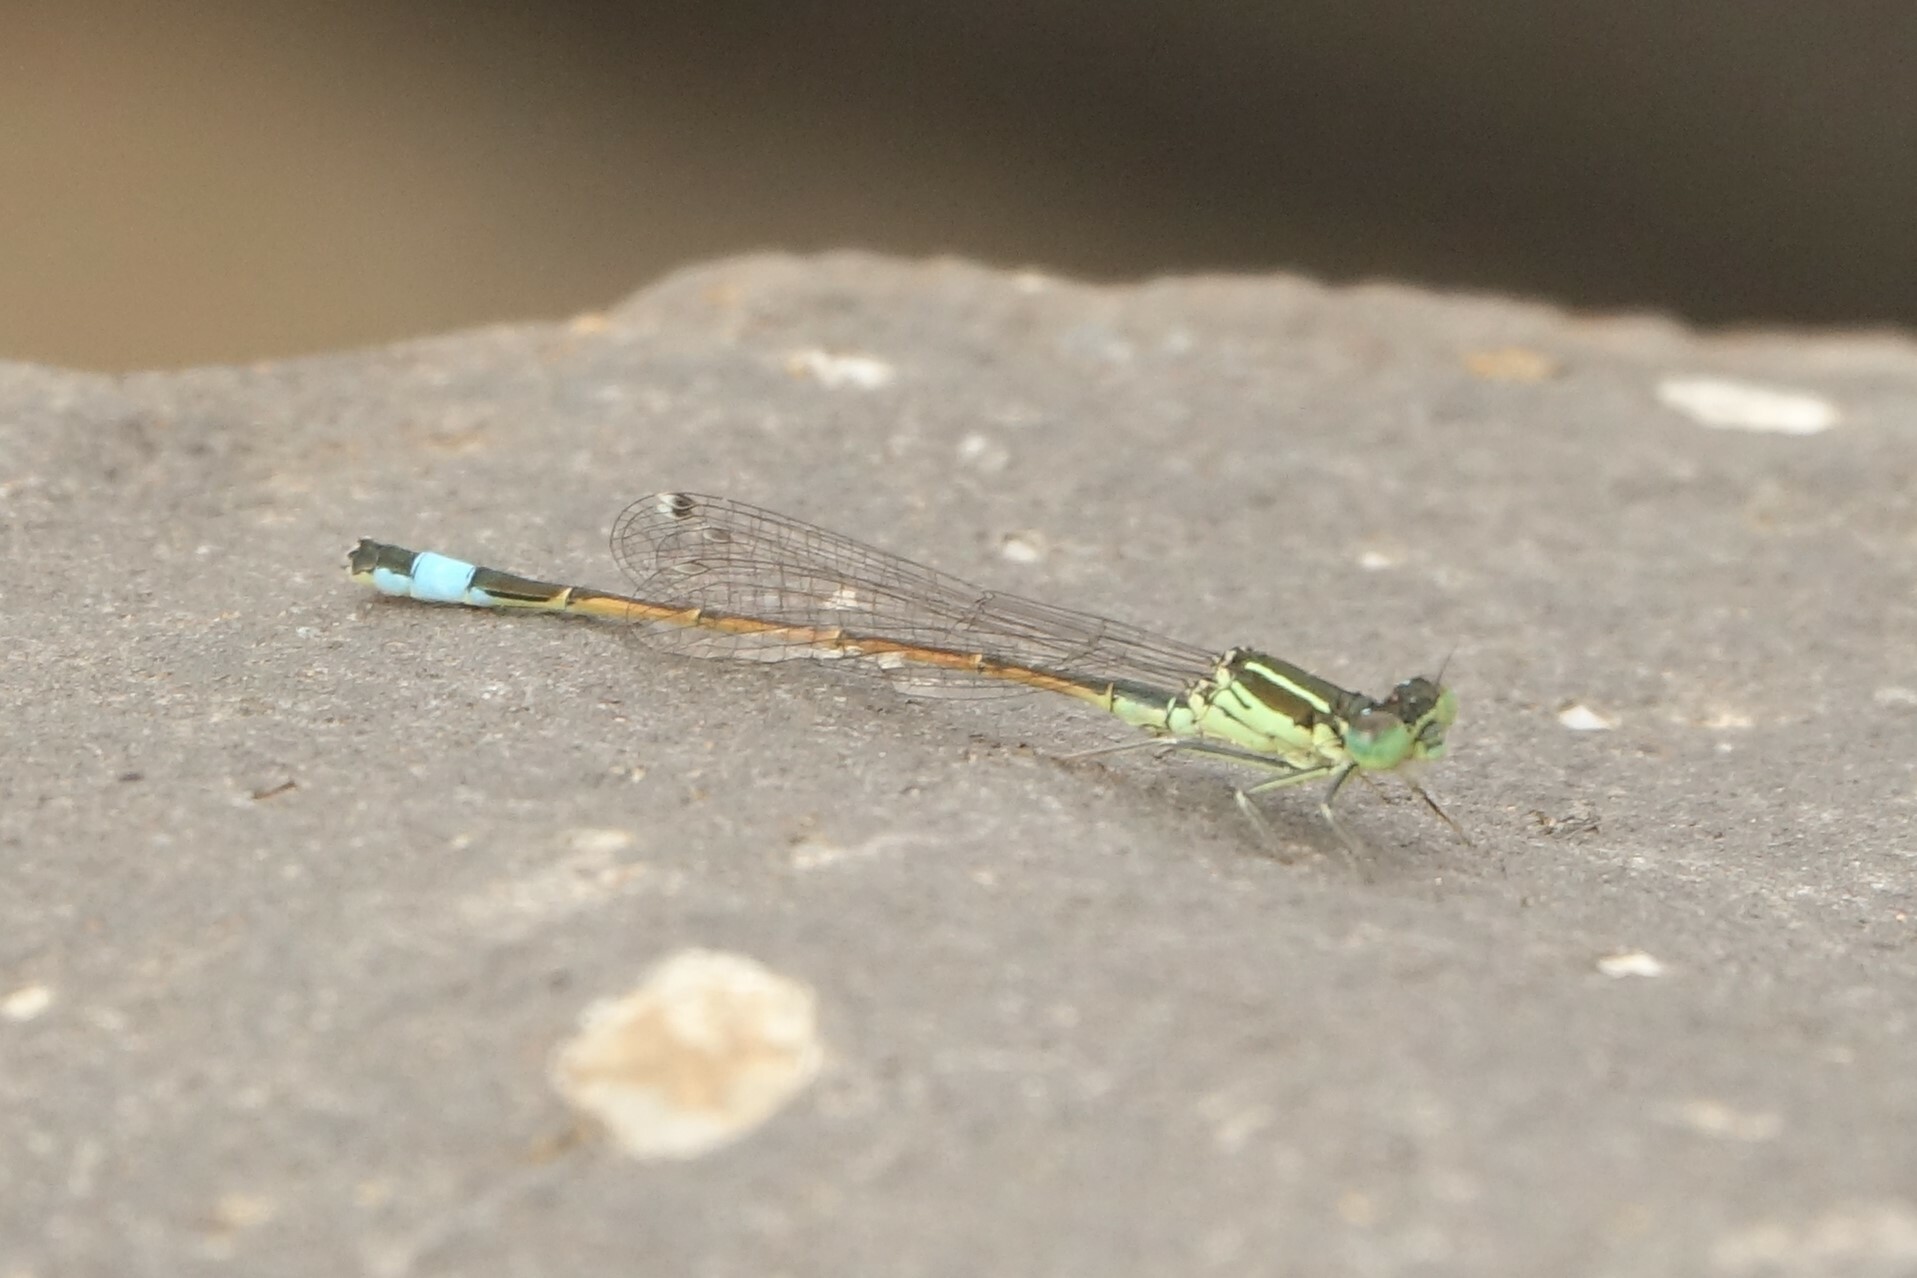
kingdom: Animalia
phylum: Arthropoda
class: Insecta
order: Odonata
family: Coenagrionidae
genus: Ischnura
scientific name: Ischnura saharensis
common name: Sahara bluetail
